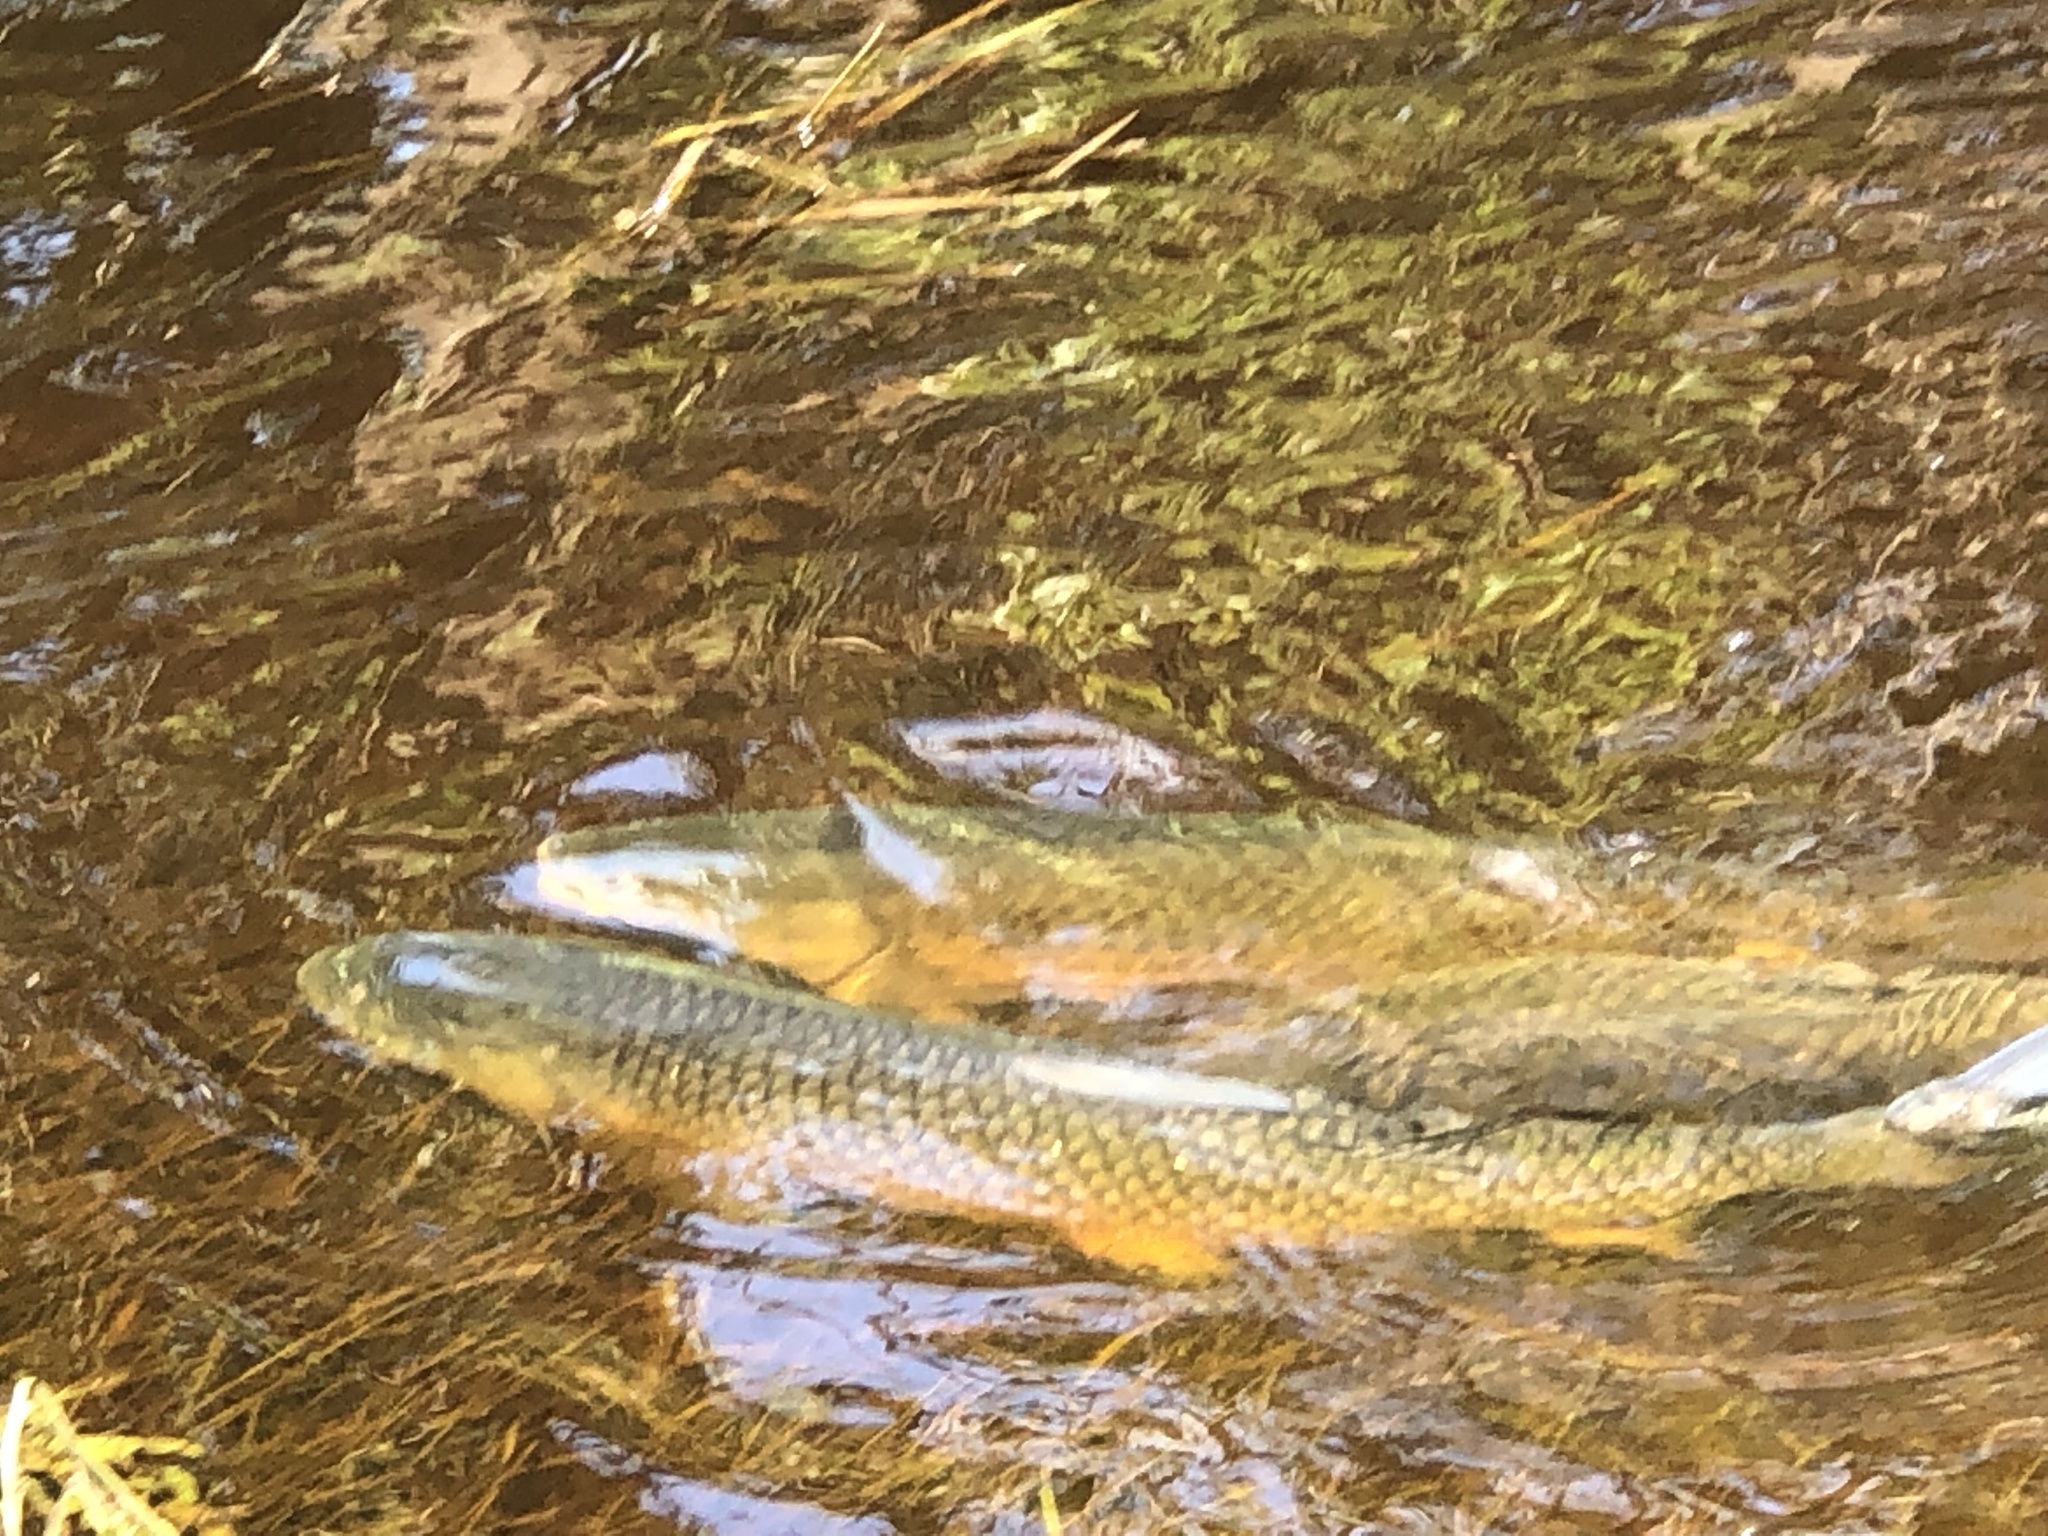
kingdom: Animalia
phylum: Chordata
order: Cypriniformes
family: Cyprinidae
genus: Ctenopharyngodon
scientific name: Ctenopharyngodon idella
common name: Grass carp
